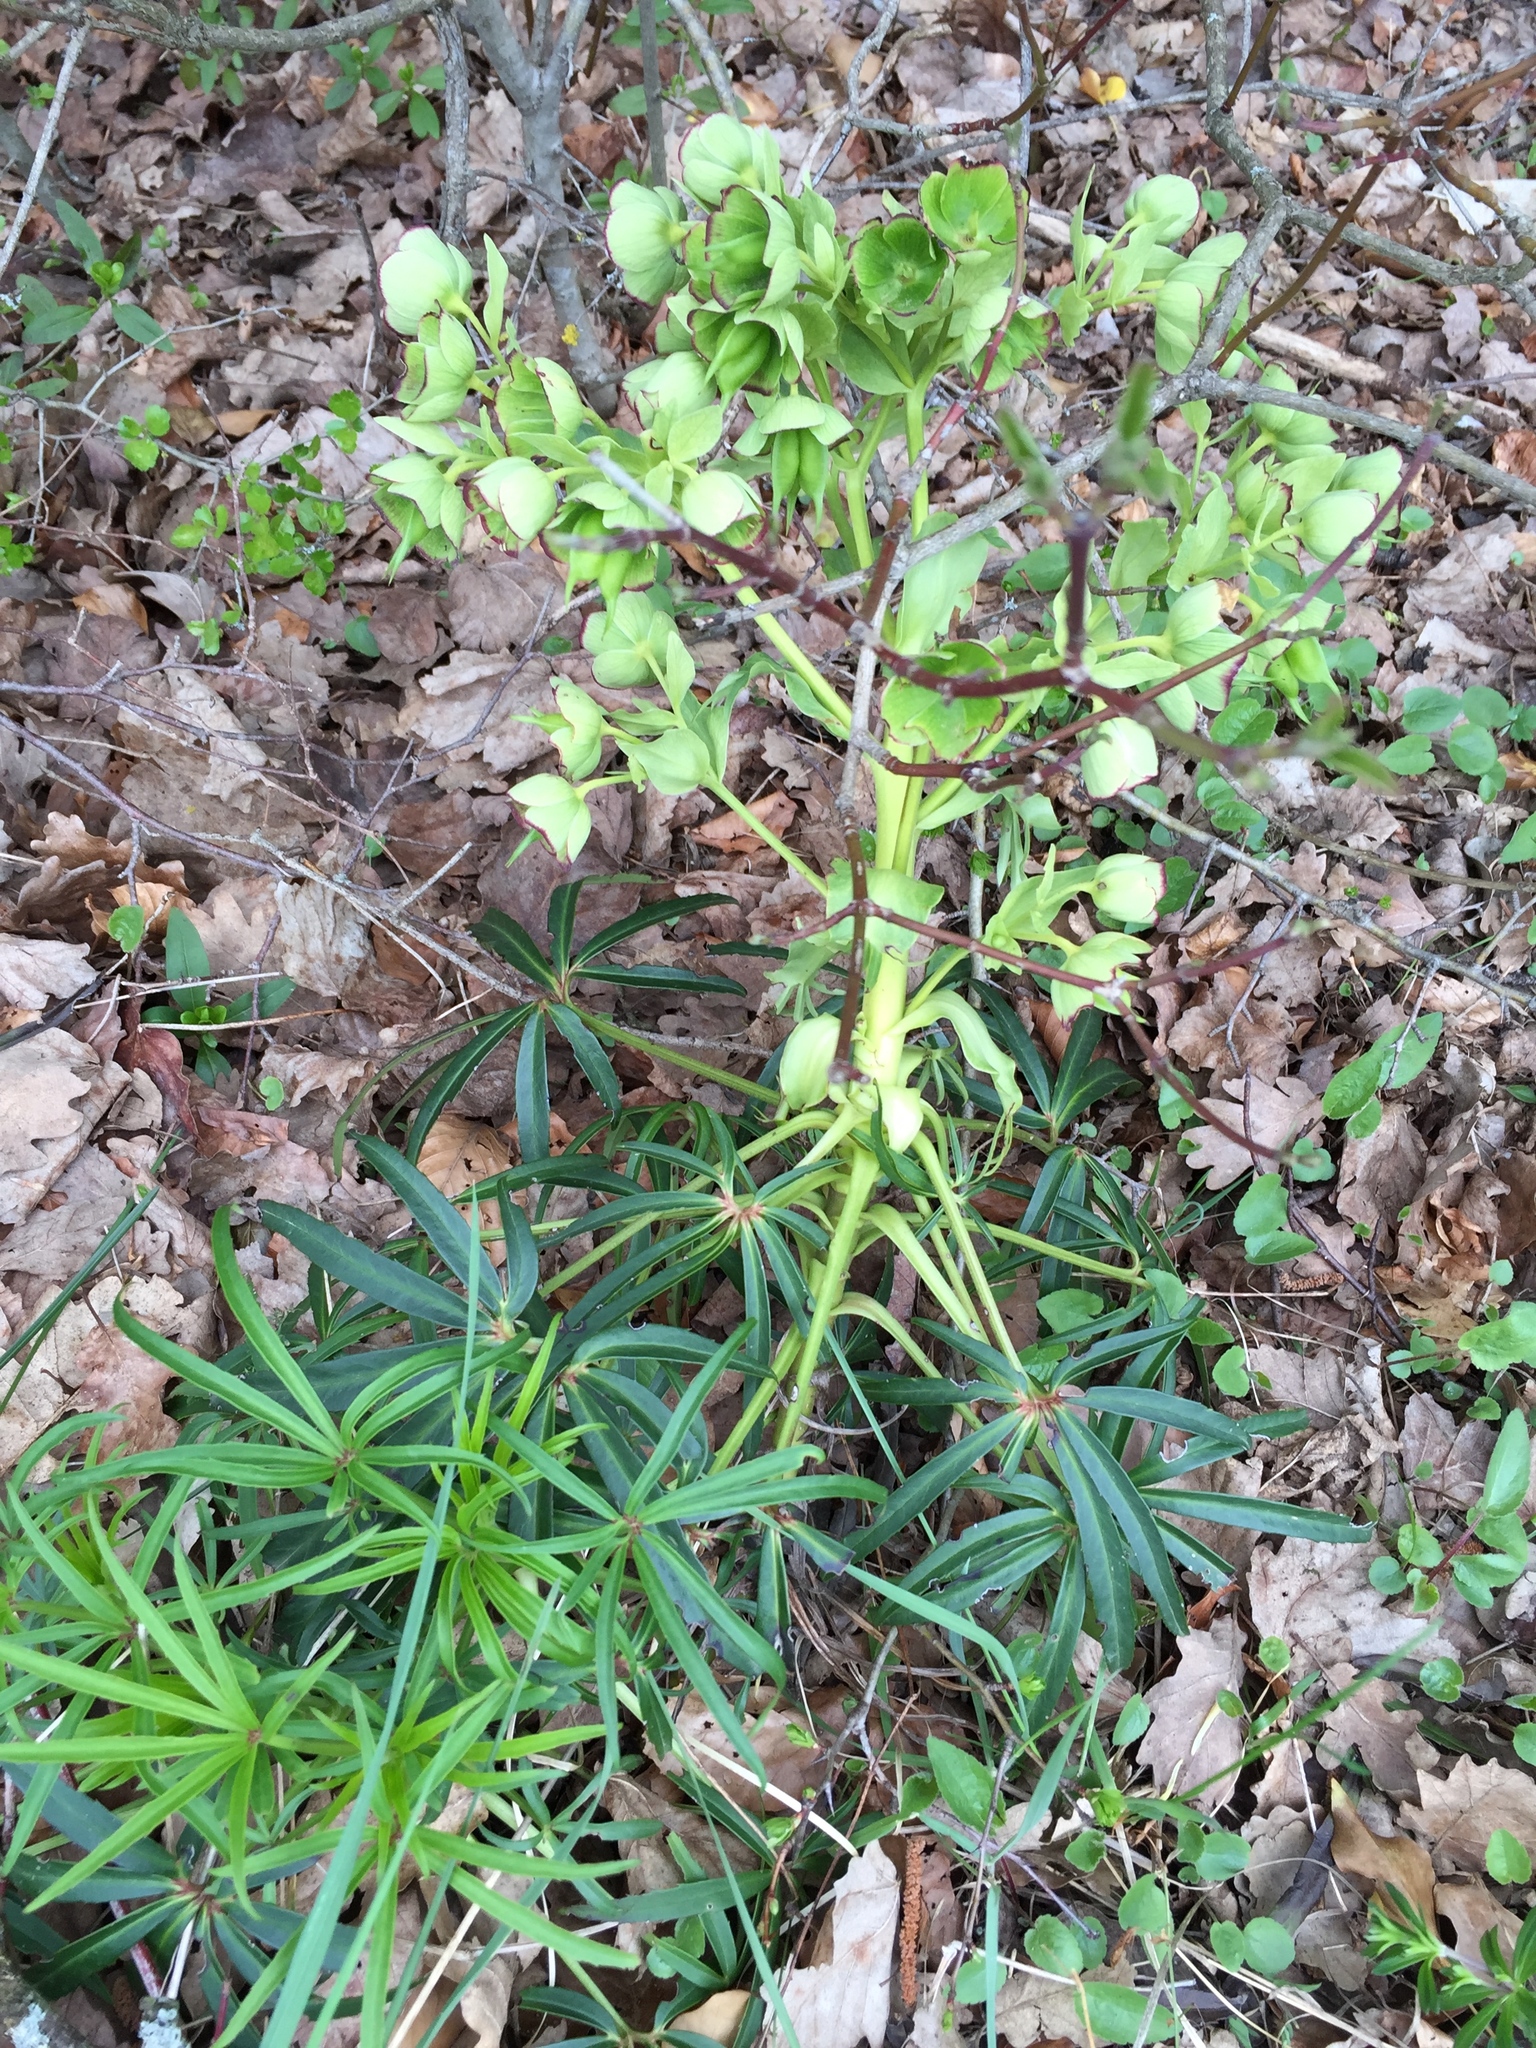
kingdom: Plantae
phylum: Tracheophyta
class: Magnoliopsida
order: Ranunculales
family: Ranunculaceae
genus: Helleborus
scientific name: Helleborus foetidus
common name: Stinking hellebore
